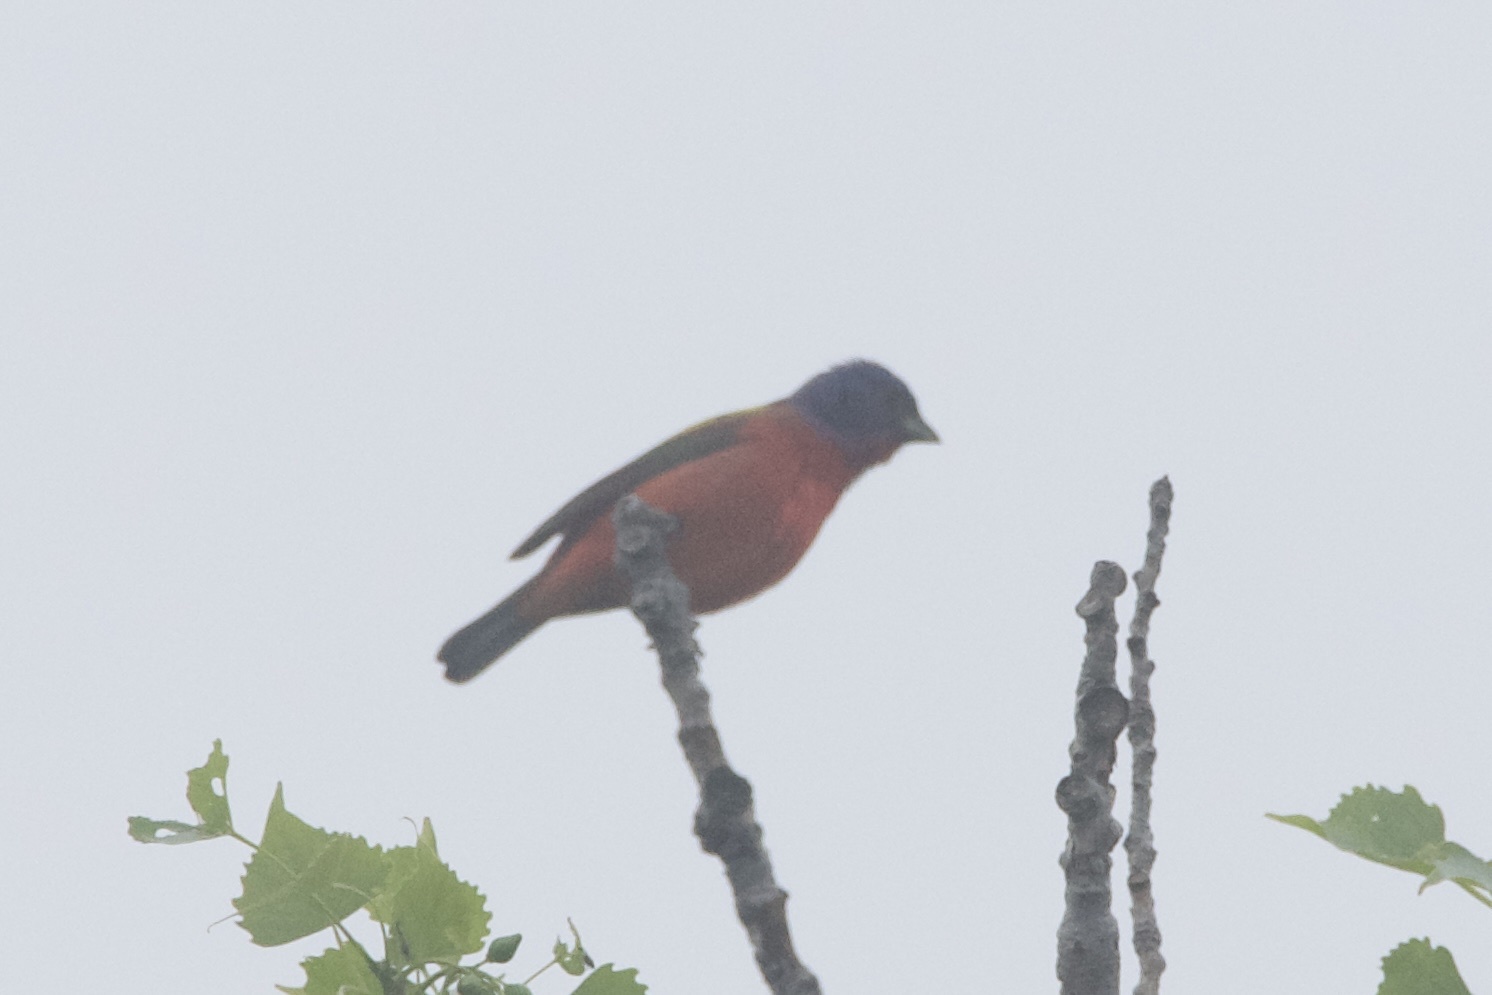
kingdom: Animalia
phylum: Chordata
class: Aves
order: Passeriformes
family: Cardinalidae
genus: Passerina
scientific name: Passerina ciris
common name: Painted bunting
